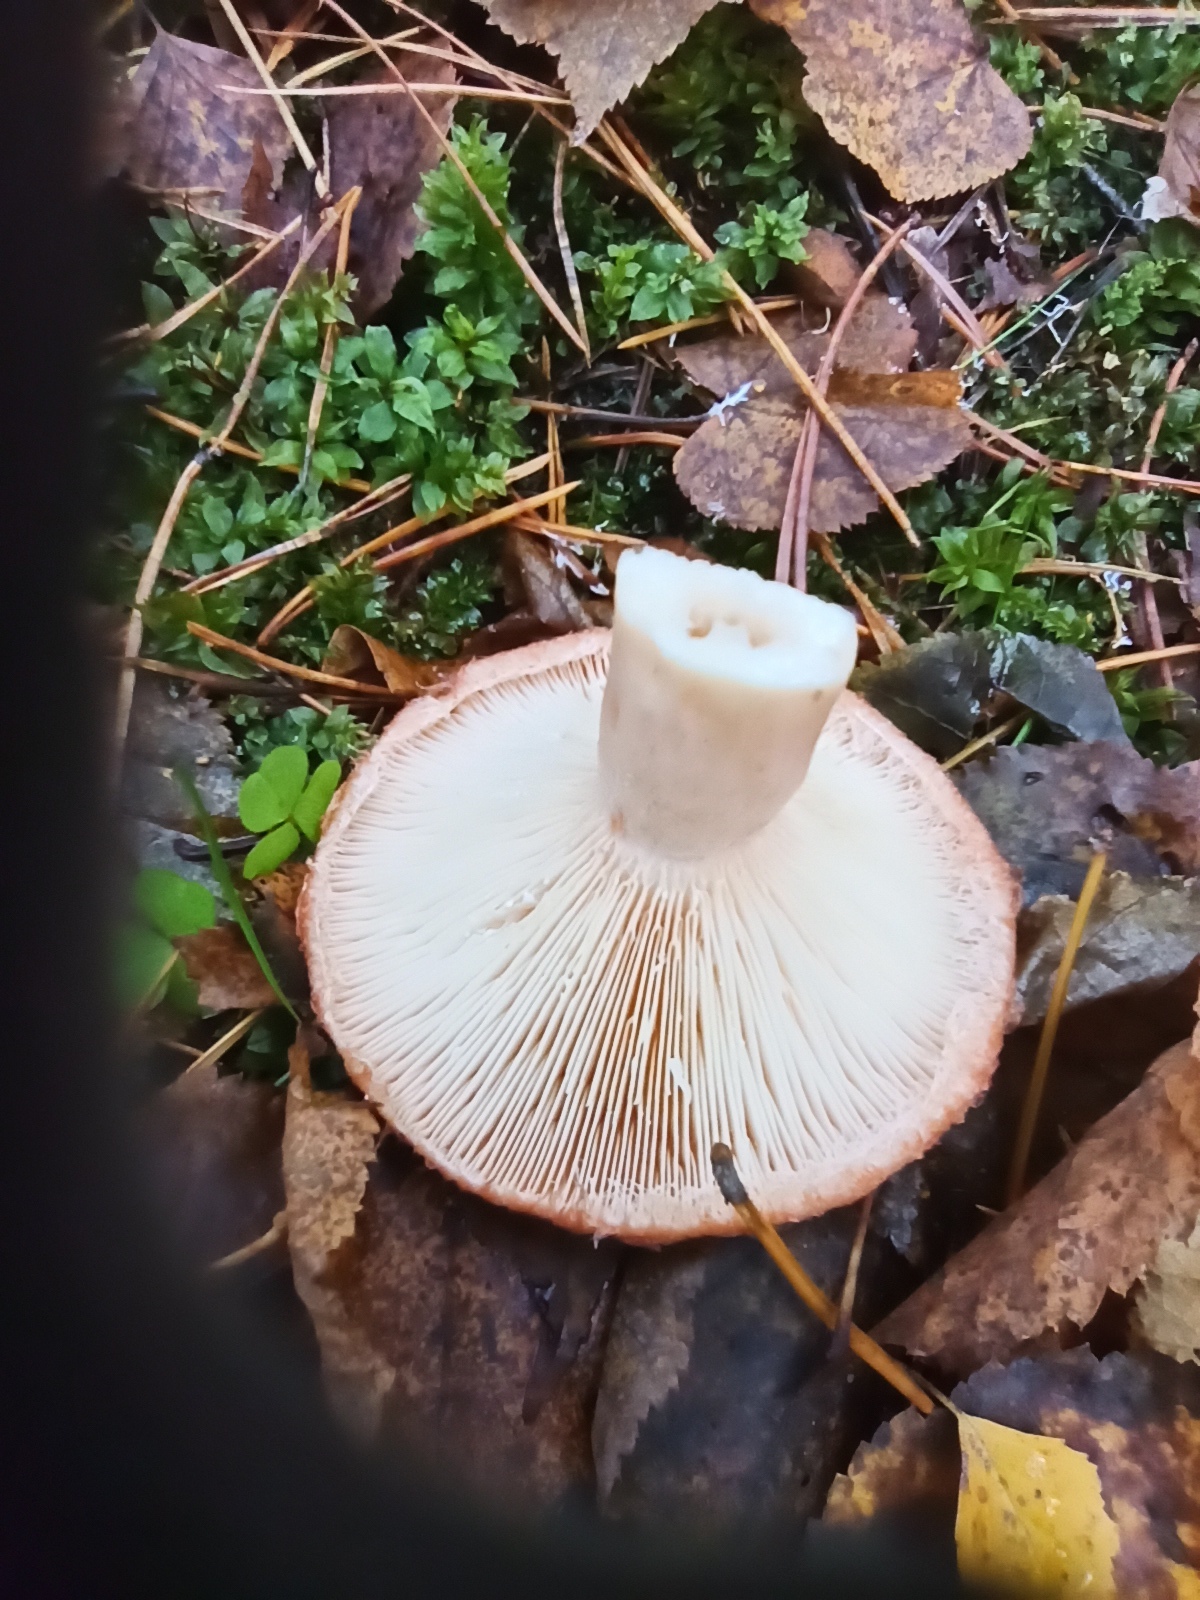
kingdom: Fungi
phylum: Basidiomycota
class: Agaricomycetes
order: Russulales
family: Russulaceae
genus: Lactarius
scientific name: Lactarius torminosus
